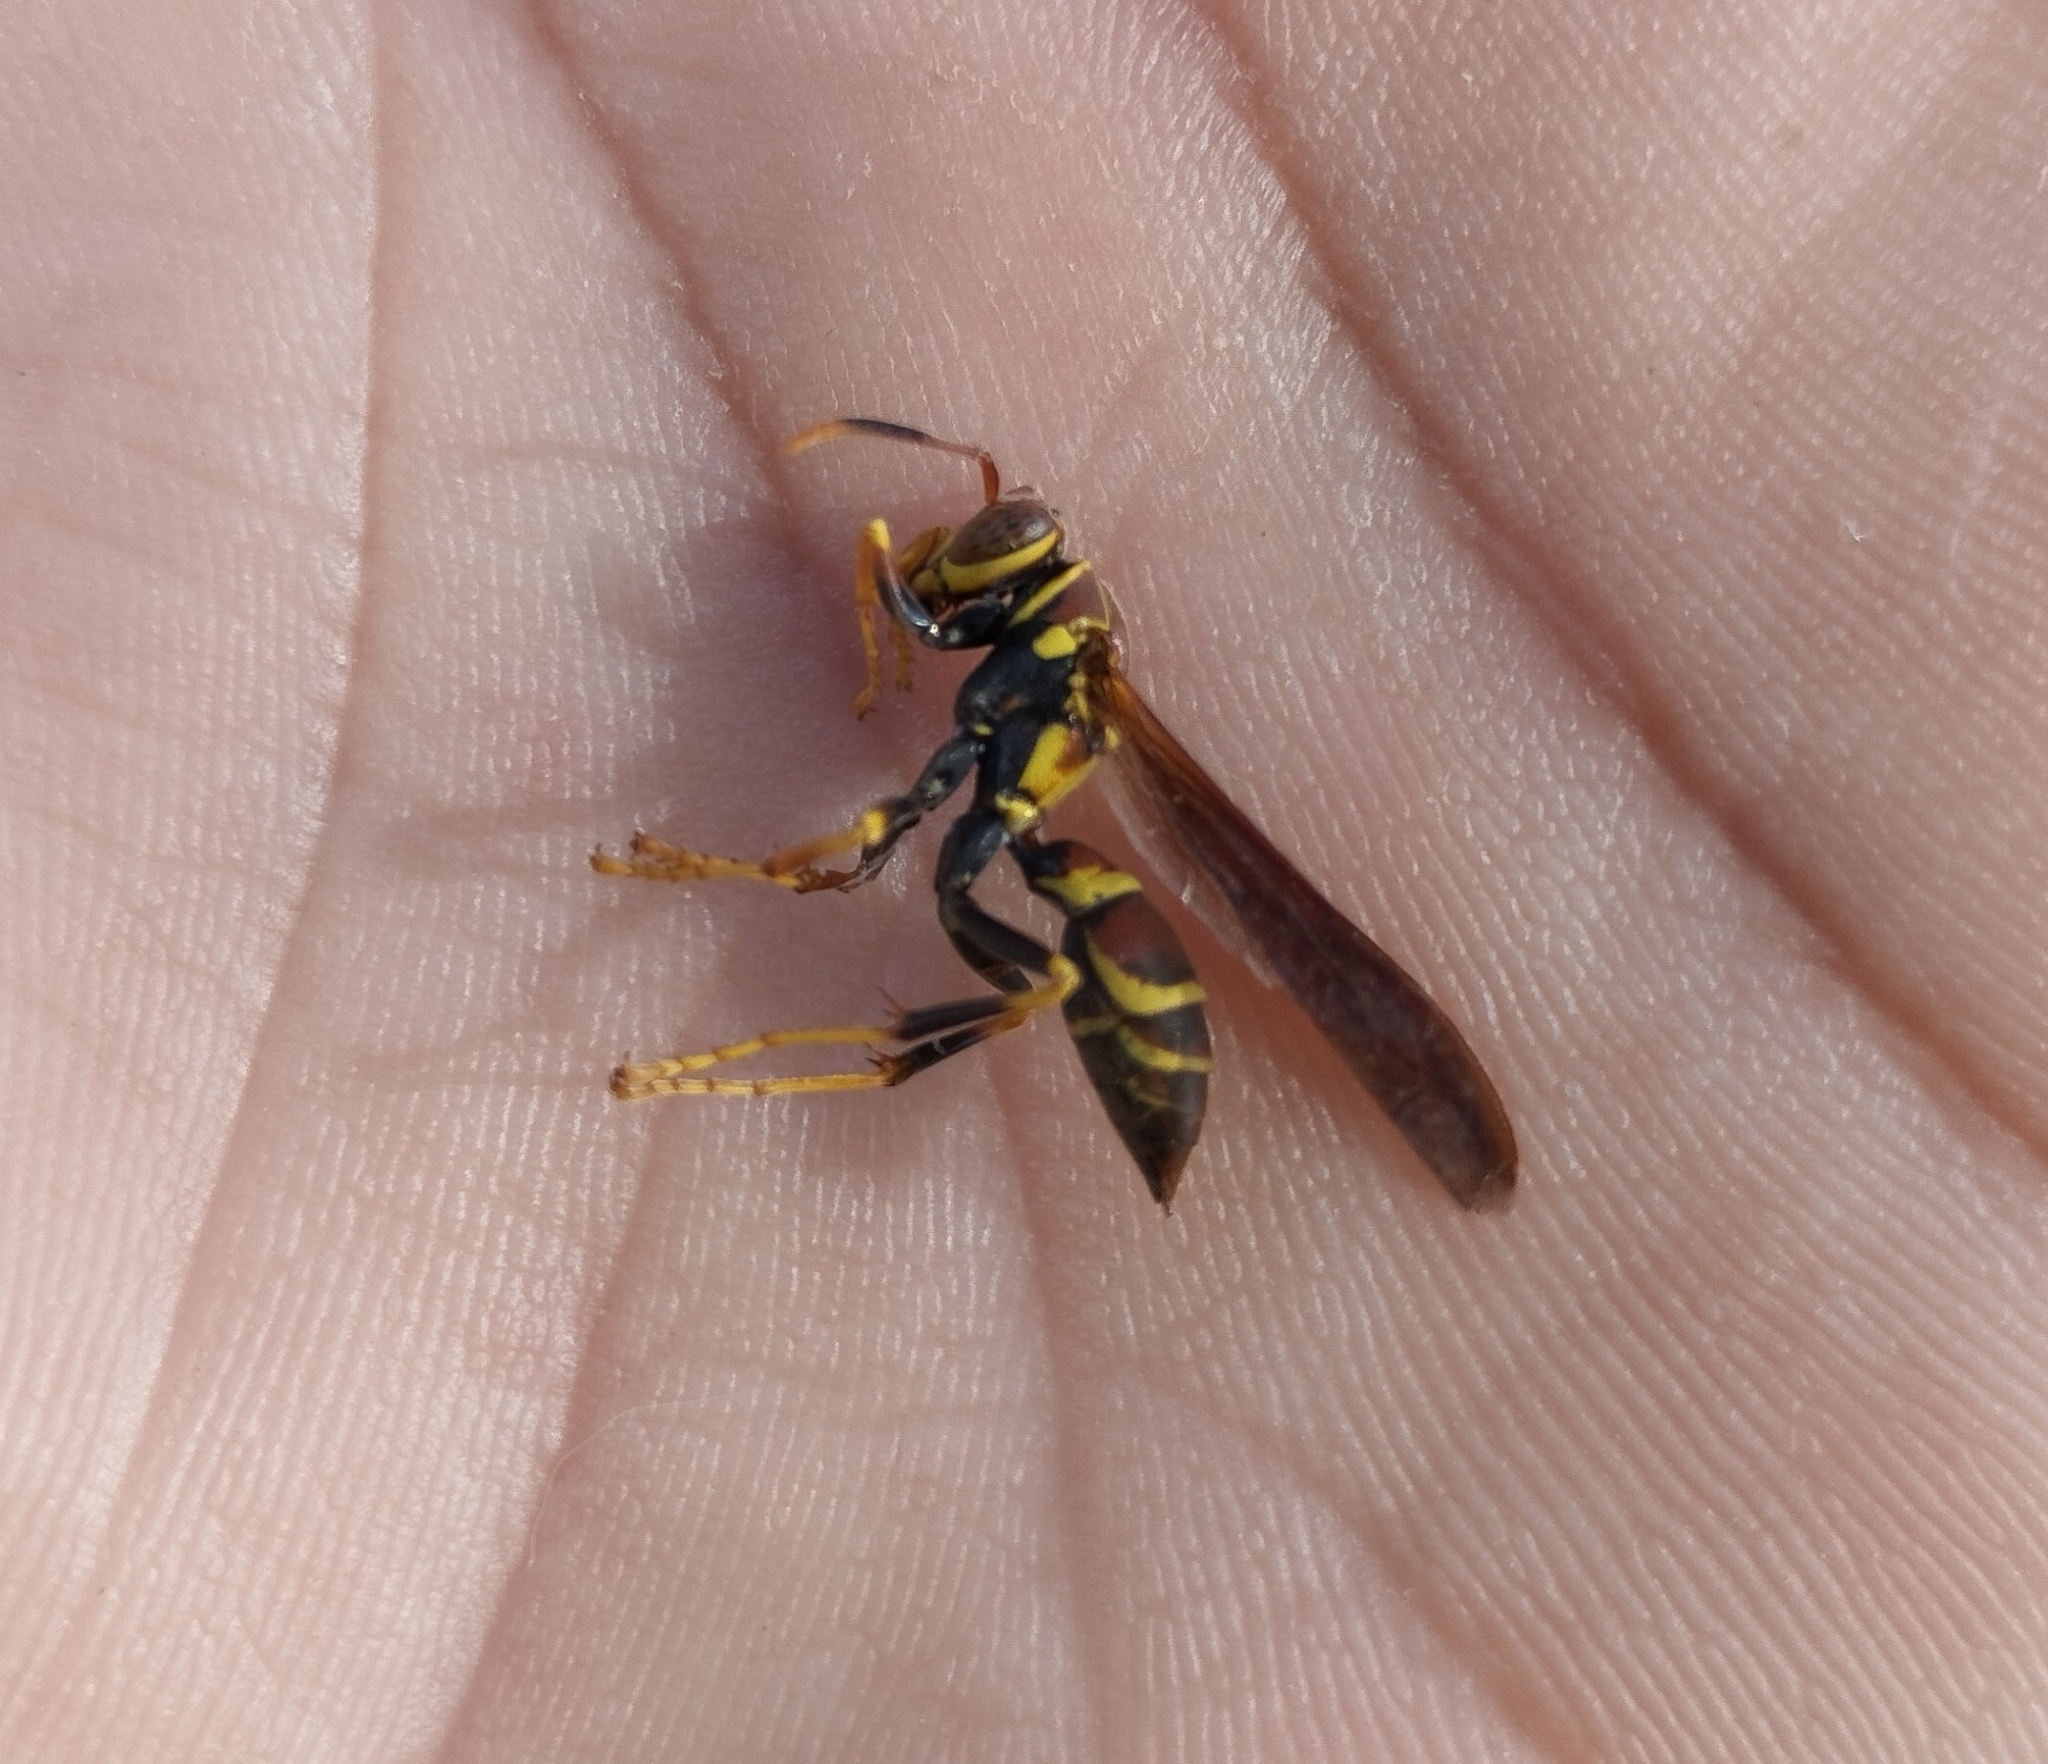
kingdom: Animalia
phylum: Arthropoda
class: Insecta
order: Hymenoptera
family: Eumenidae
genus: Polistes
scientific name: Polistes instabilis
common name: Unstable paper wasp
